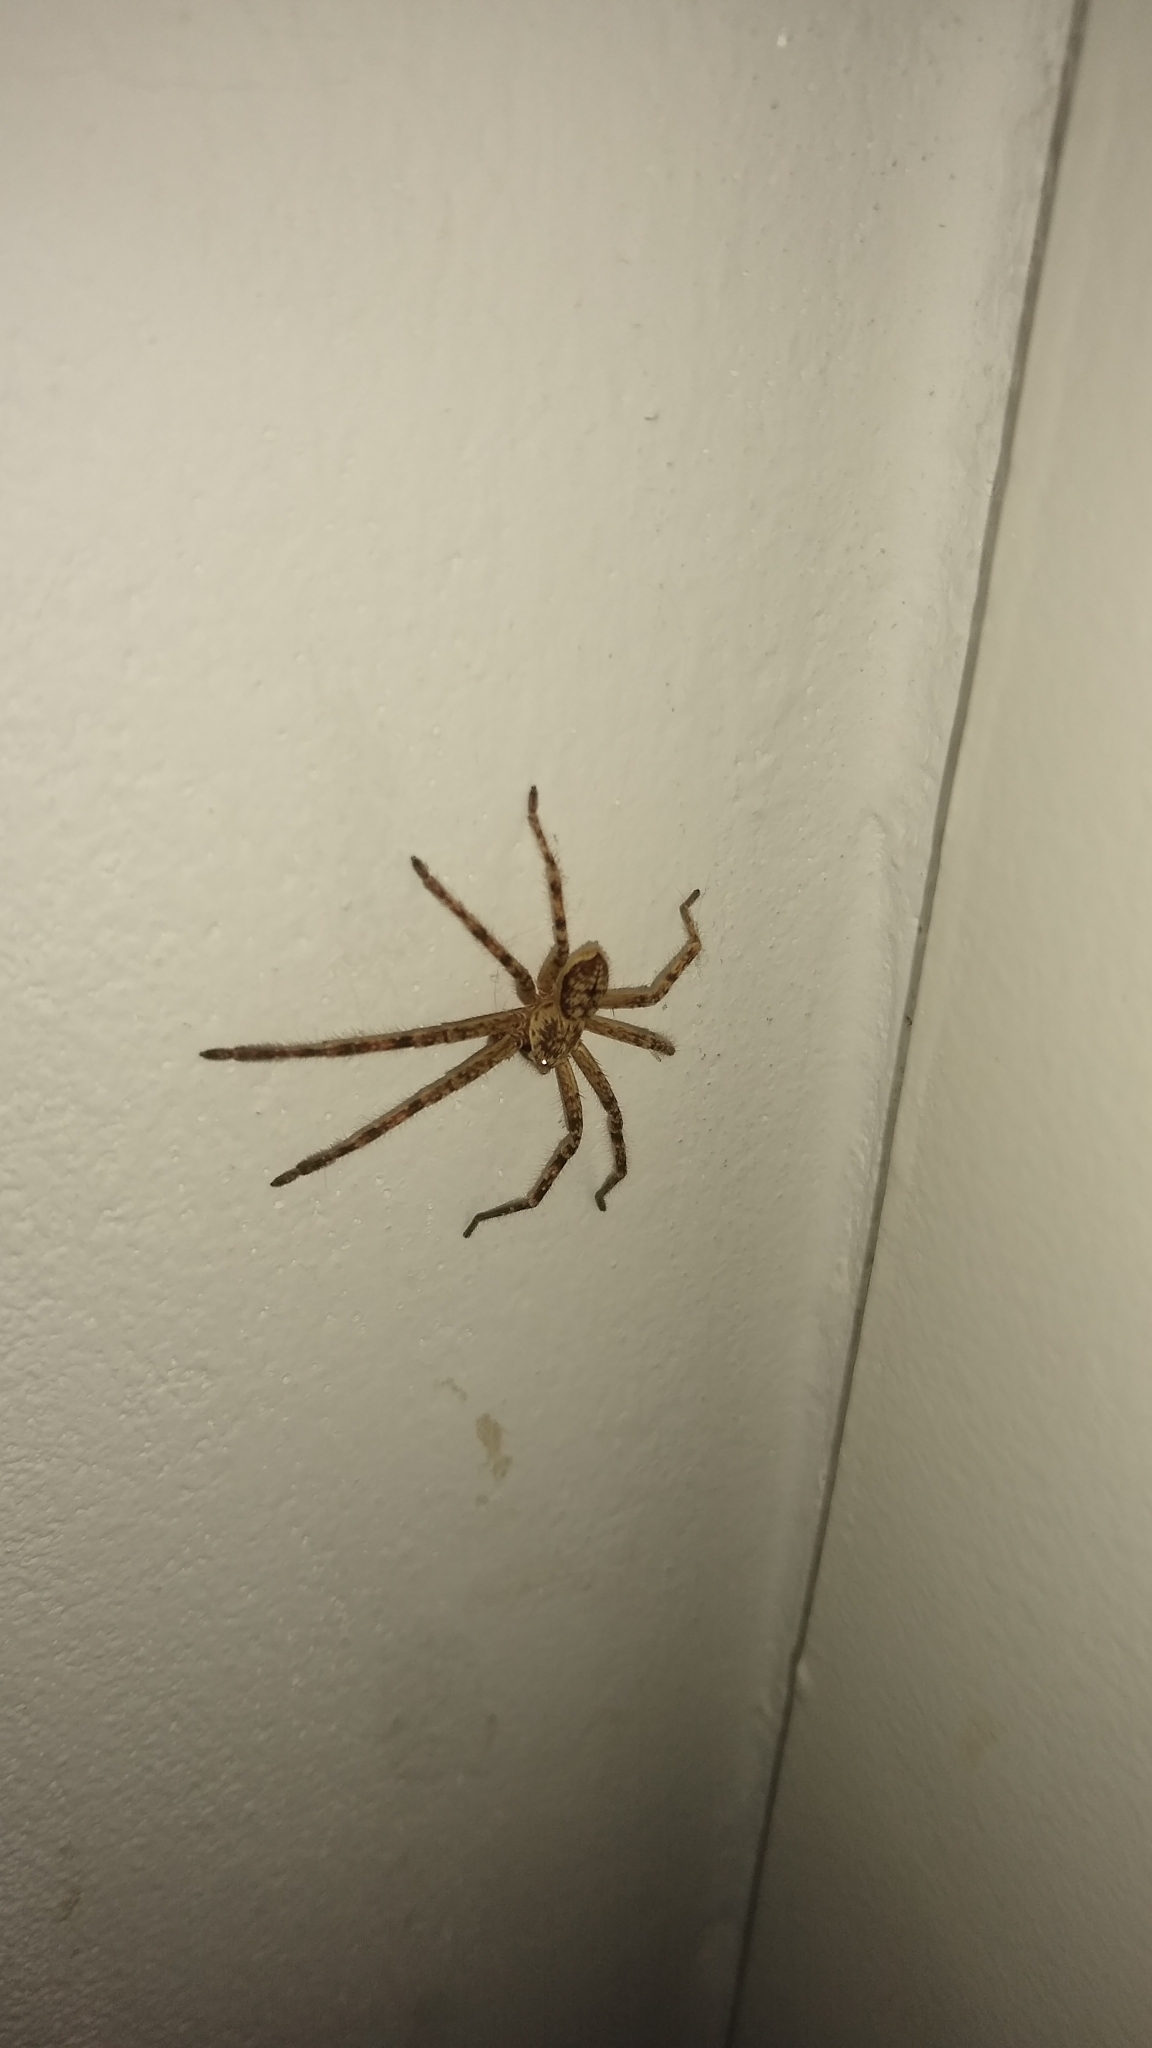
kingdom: Animalia
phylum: Arthropoda
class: Arachnida
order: Araneae
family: Sparassidae
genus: Polybetes
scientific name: Polybetes rapidus
